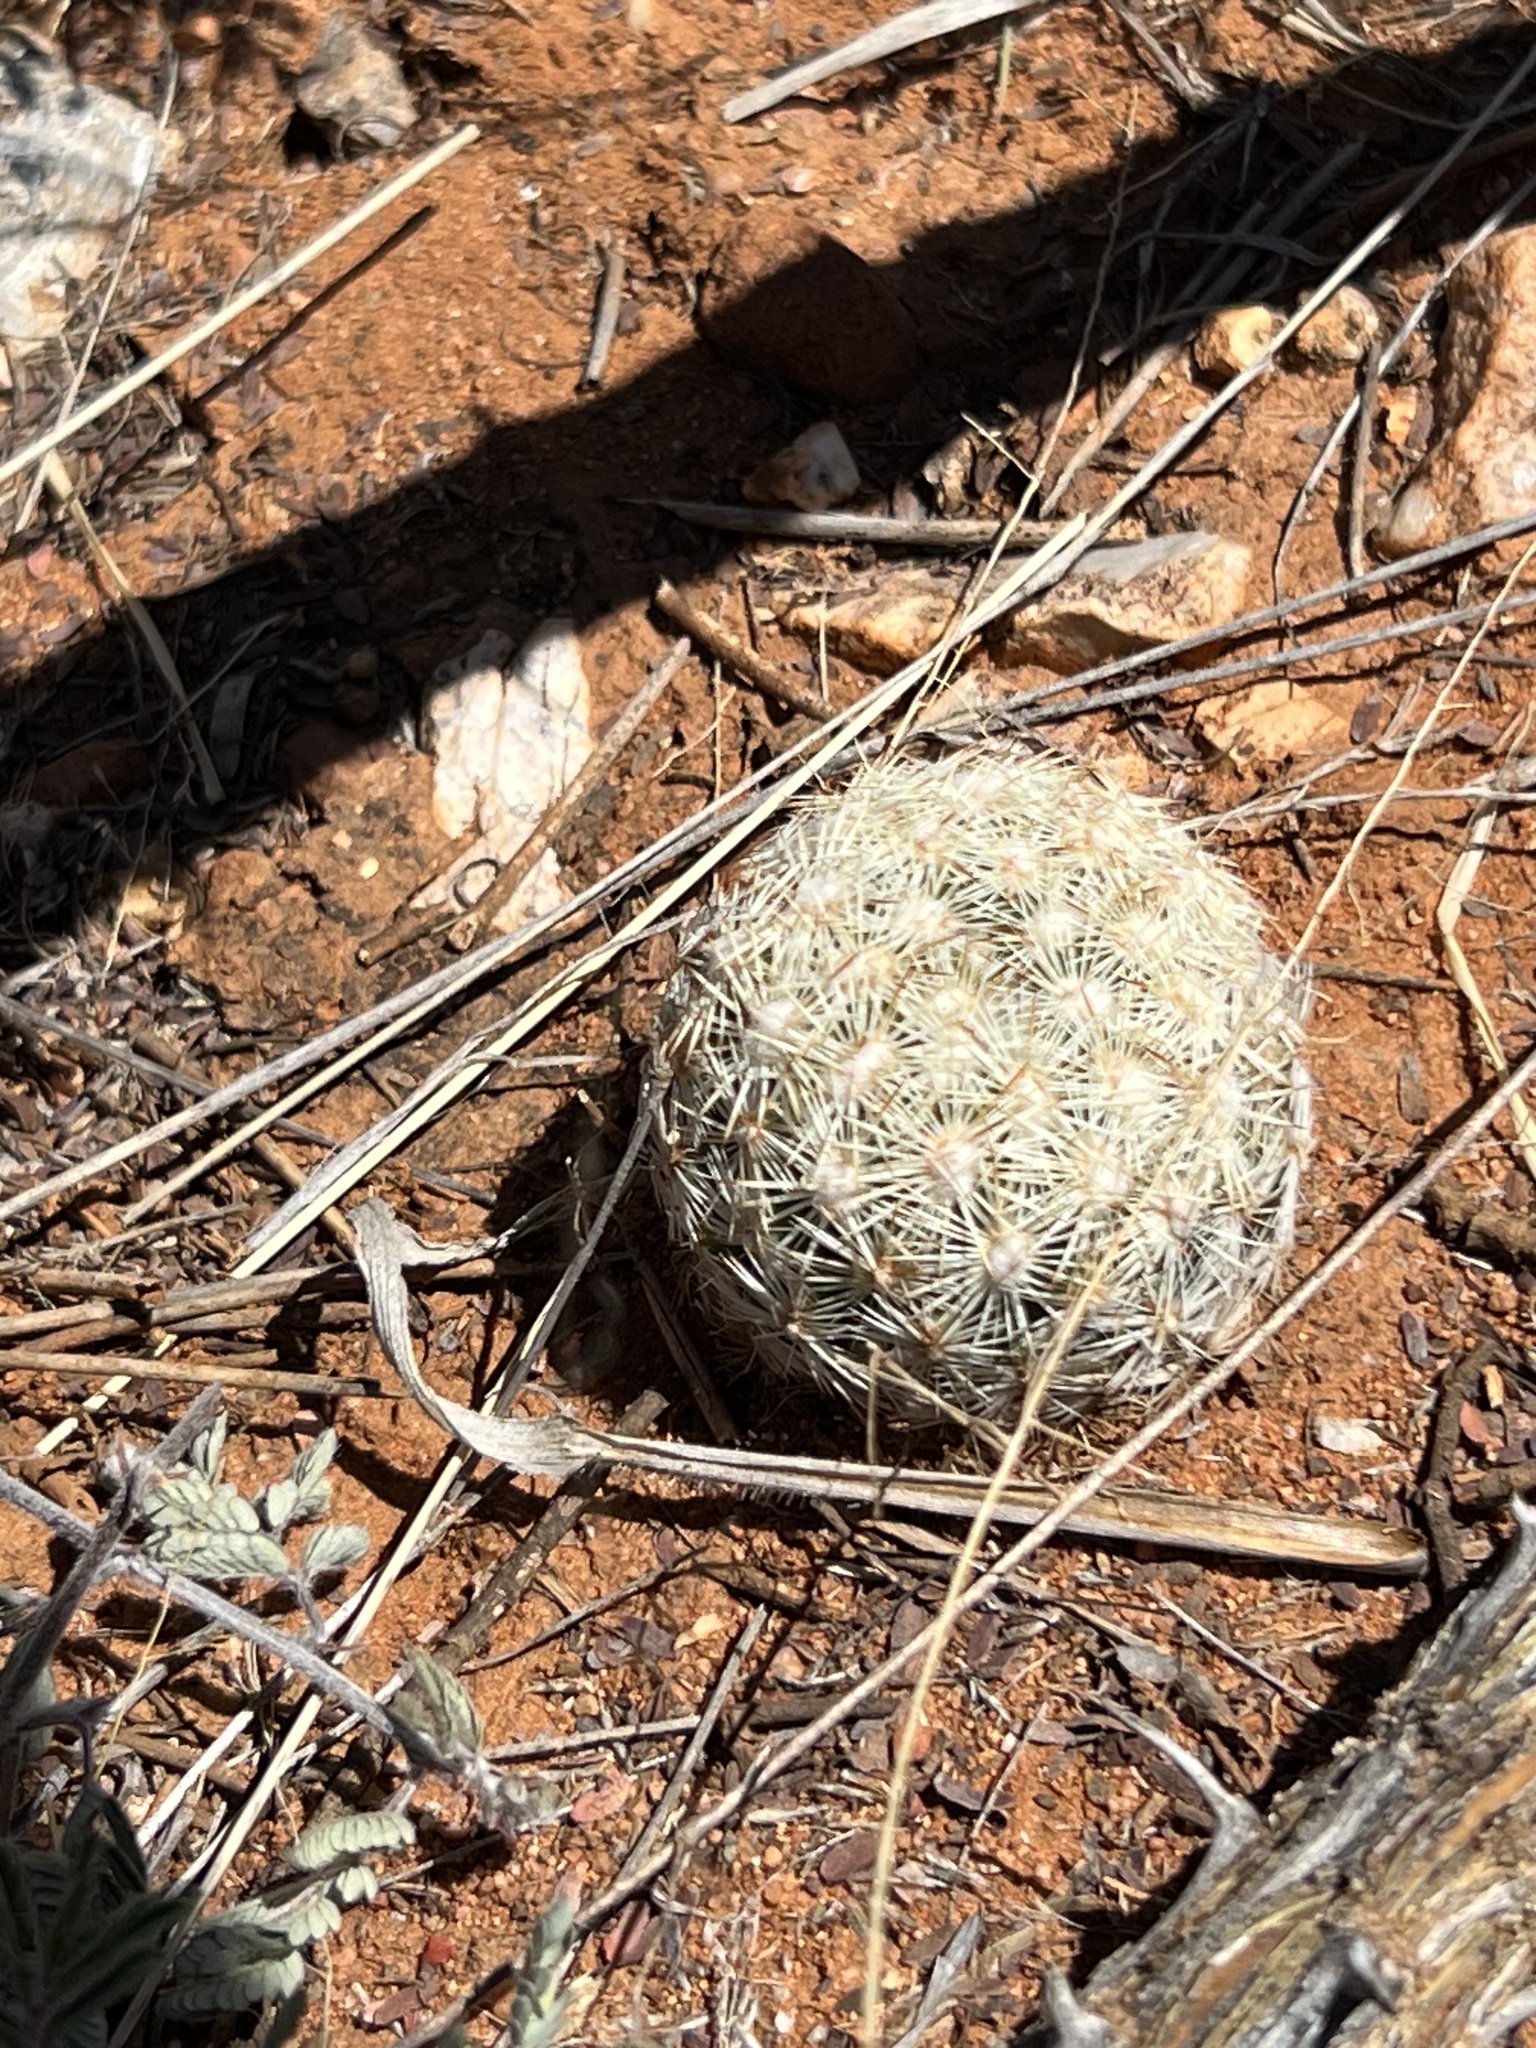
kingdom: Plantae
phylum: Tracheophyta
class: Magnoliopsida
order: Caryophyllales
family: Cactaceae
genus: Pelecyphora
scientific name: Pelecyphora vivipara
